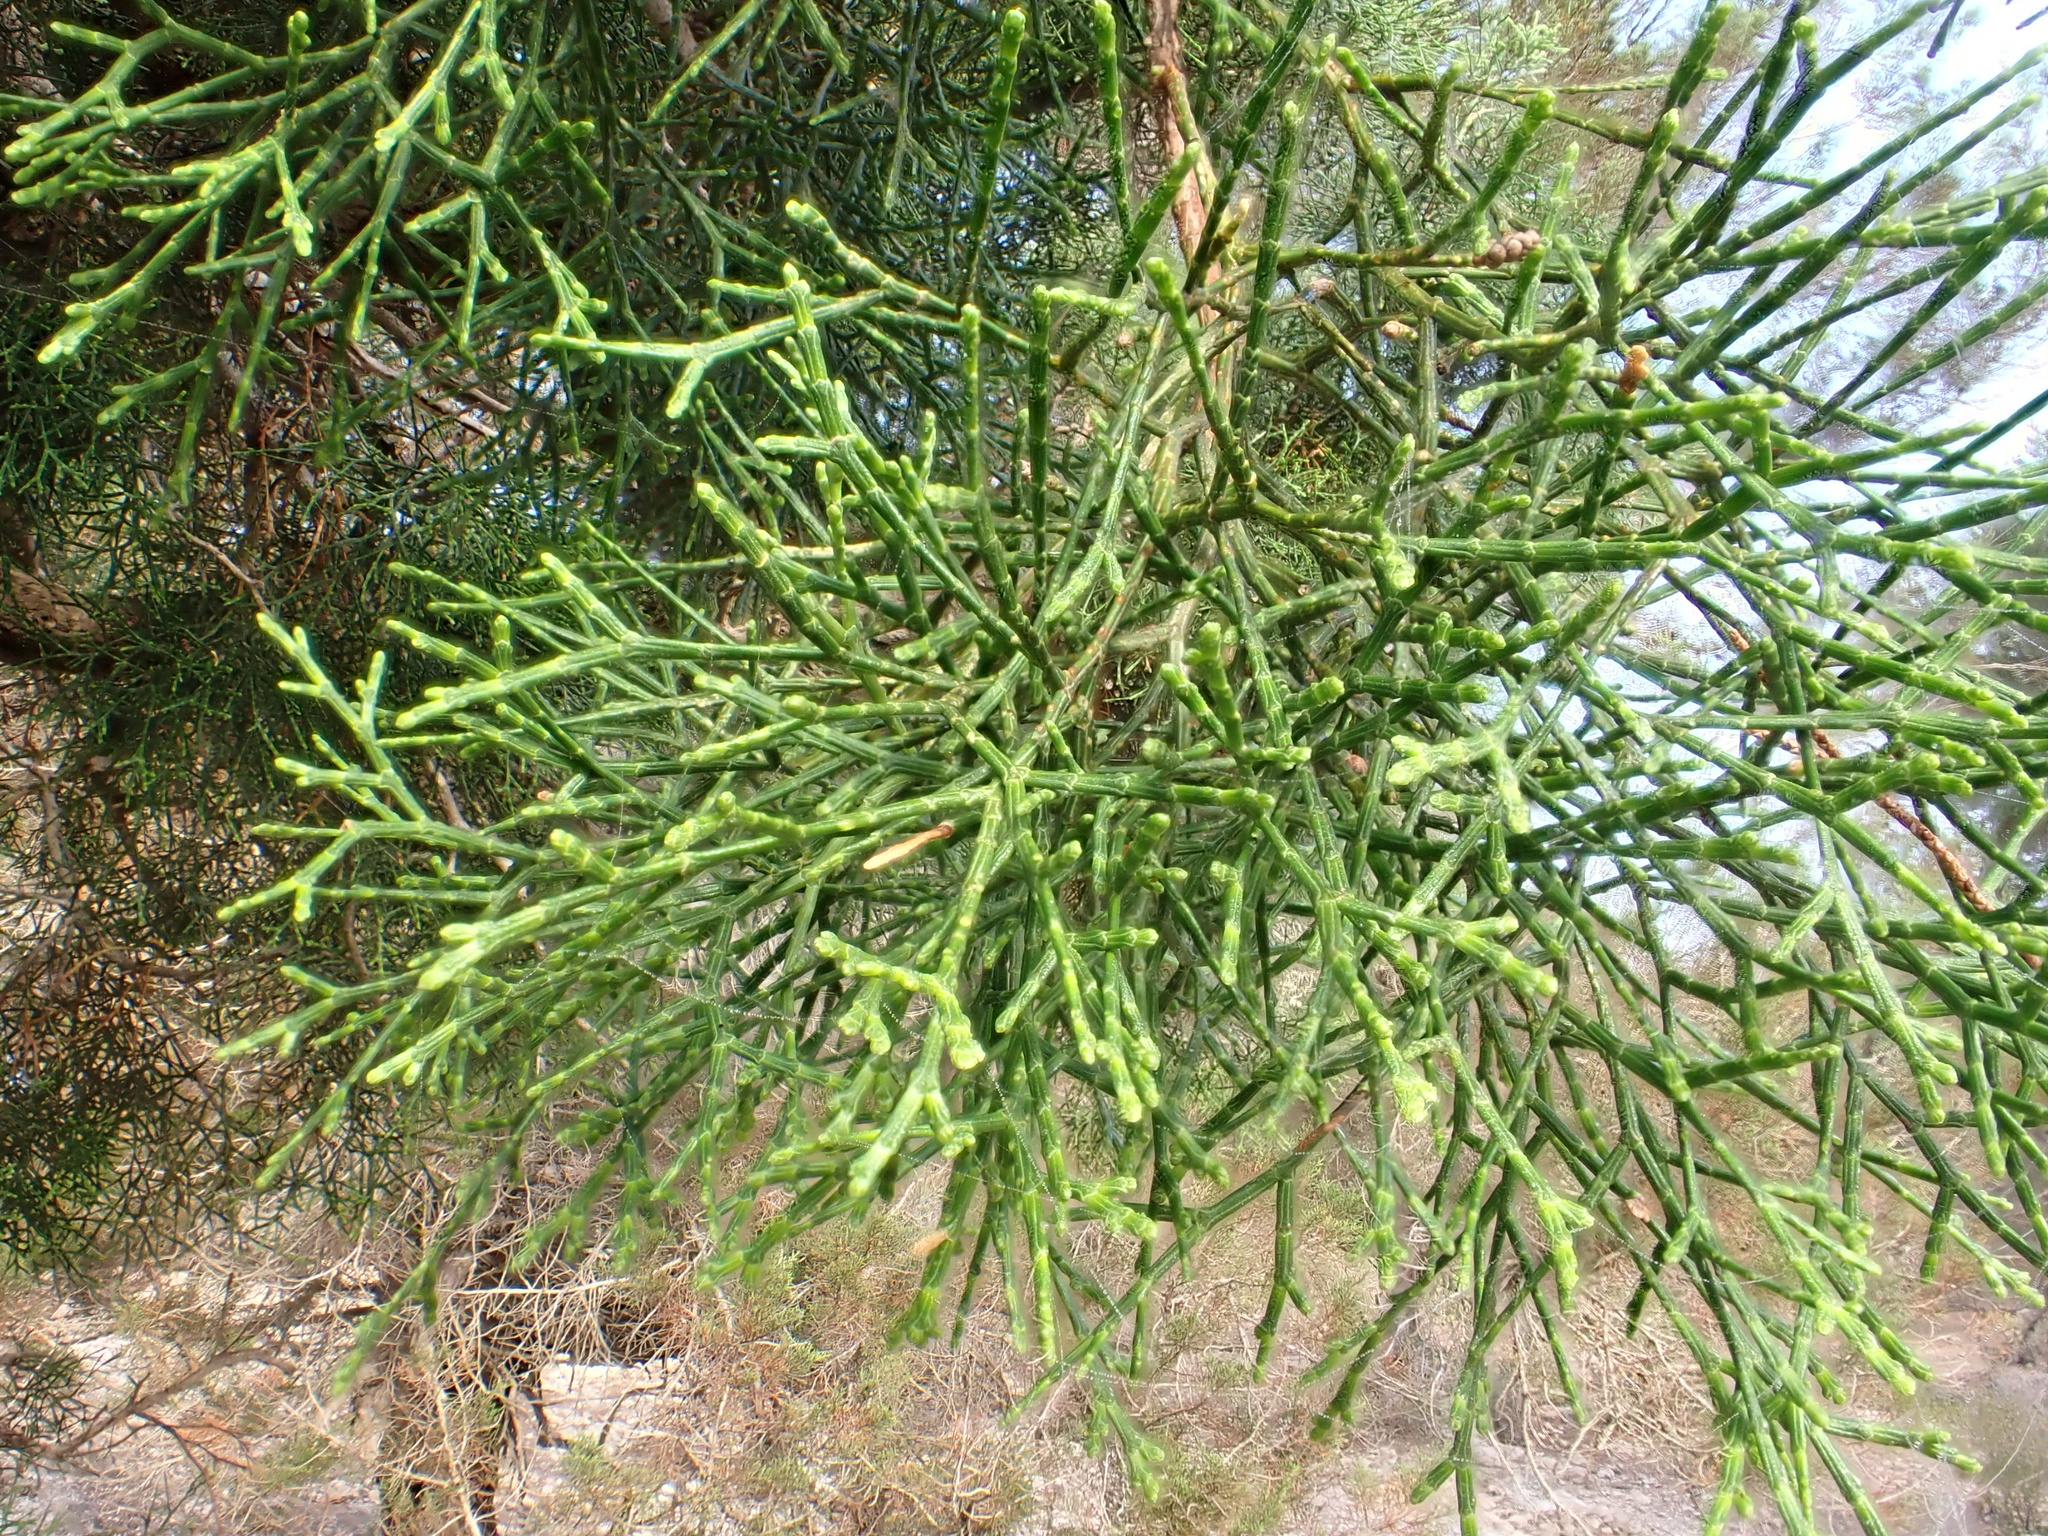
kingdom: Plantae
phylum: Tracheophyta
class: Pinopsida
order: Pinales
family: Cupressaceae
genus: Tetraclinis
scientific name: Tetraclinis articulata
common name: Sandarac
